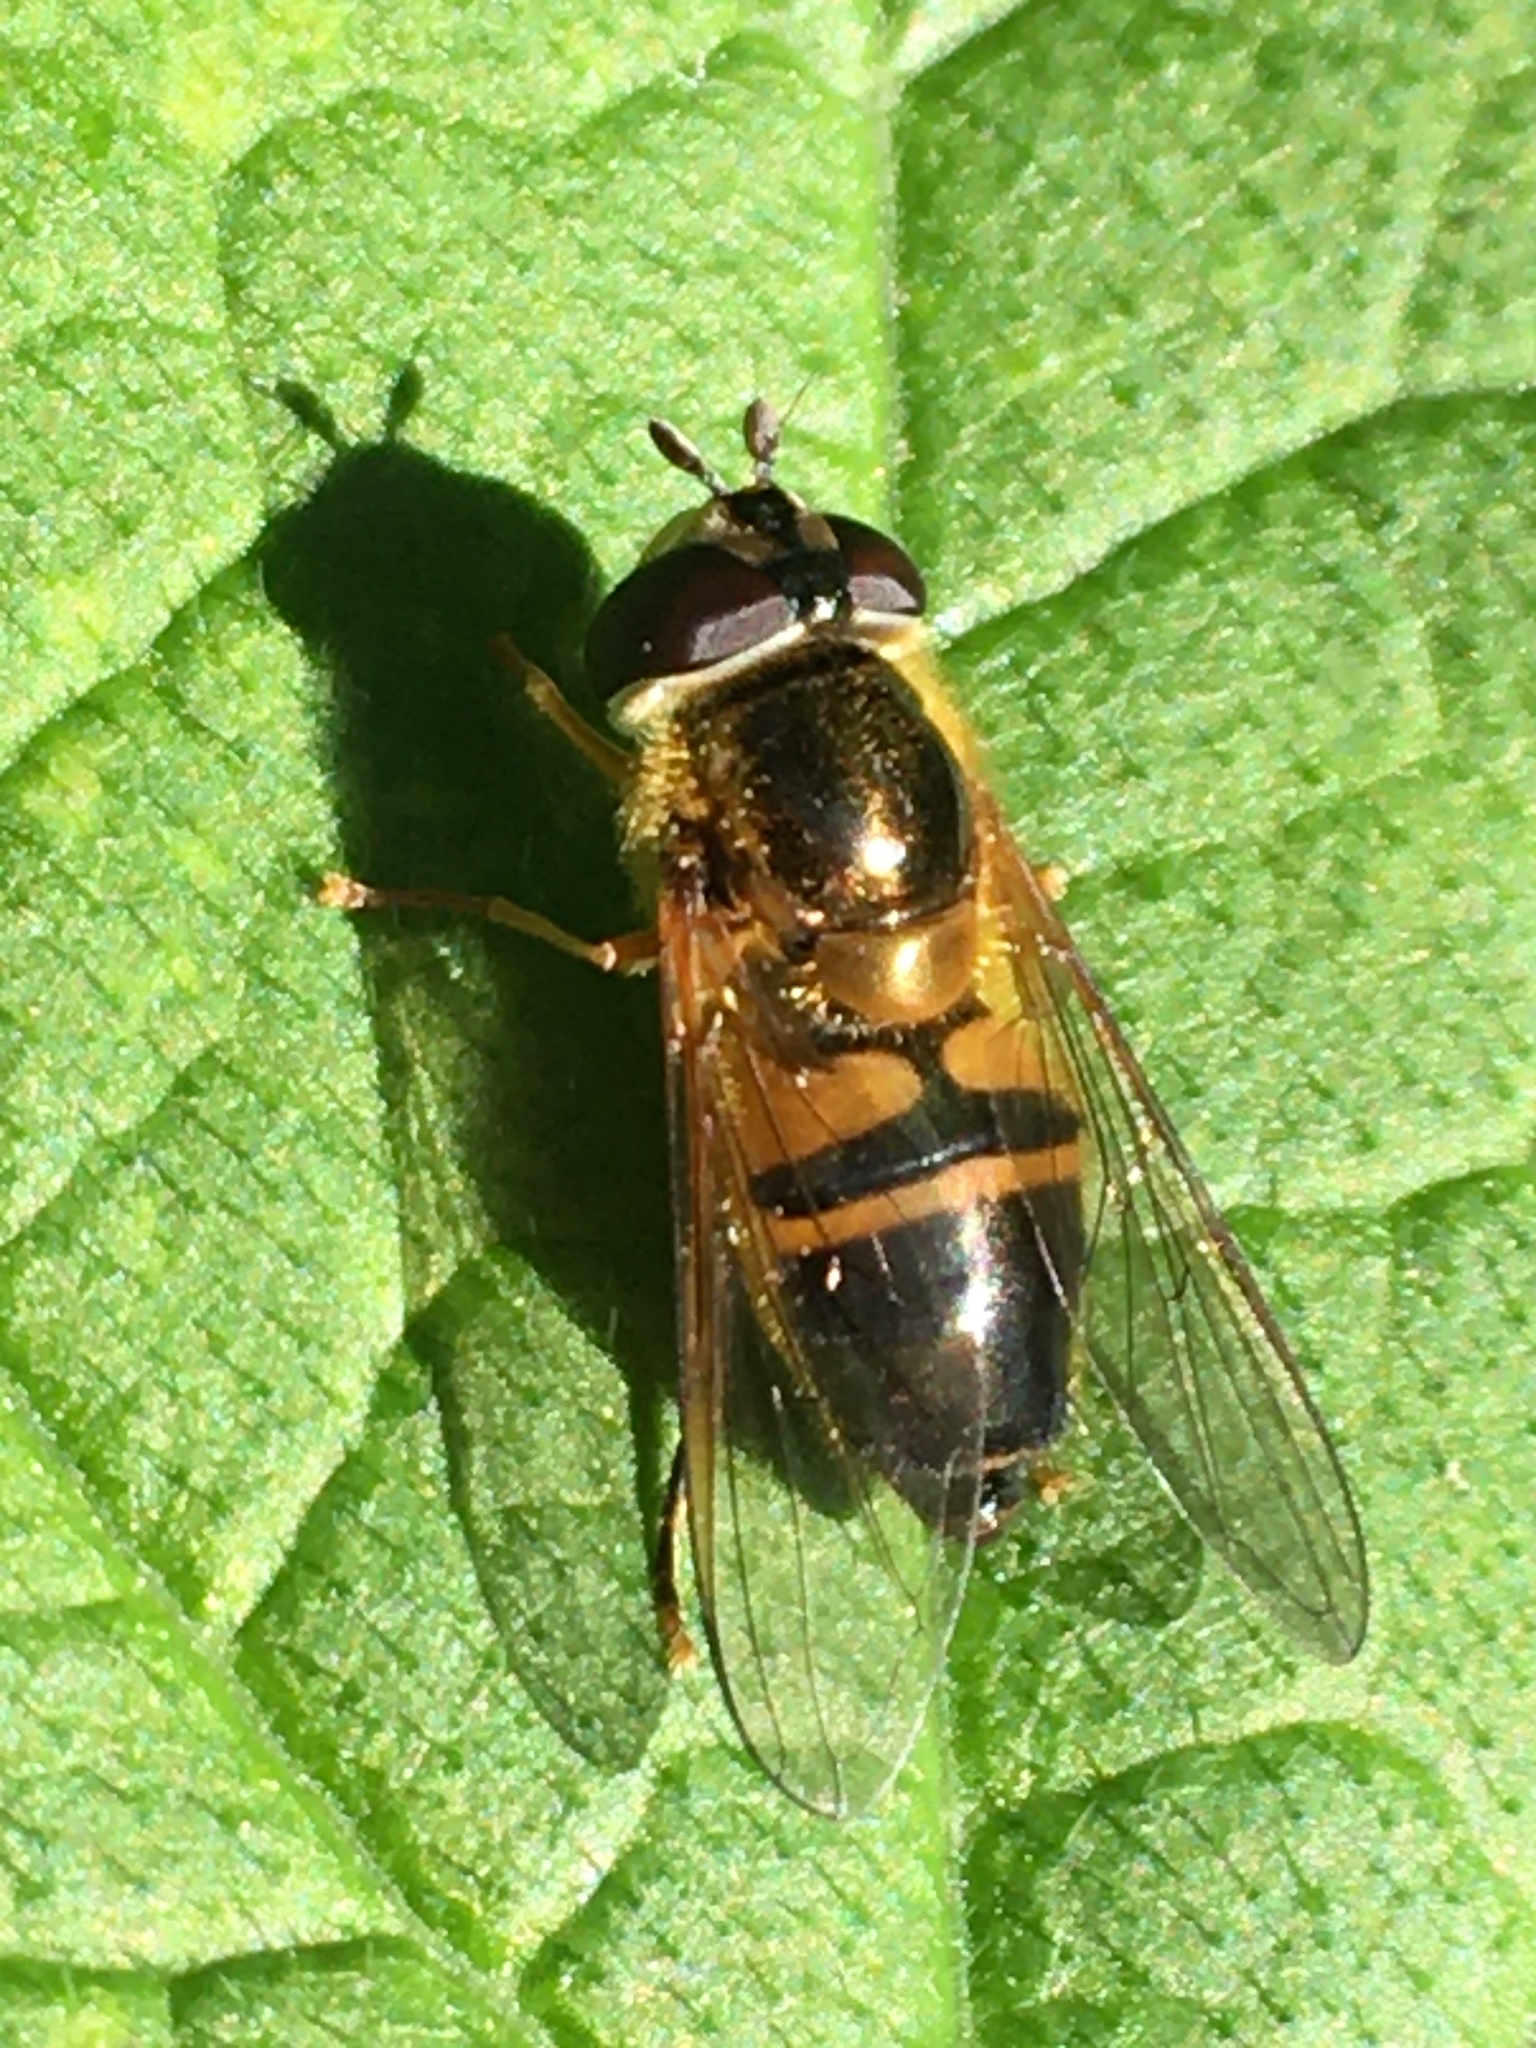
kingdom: Animalia
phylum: Arthropoda
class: Insecta
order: Diptera
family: Syrphidae
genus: Epistrophe
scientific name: Epistrophe eligans
